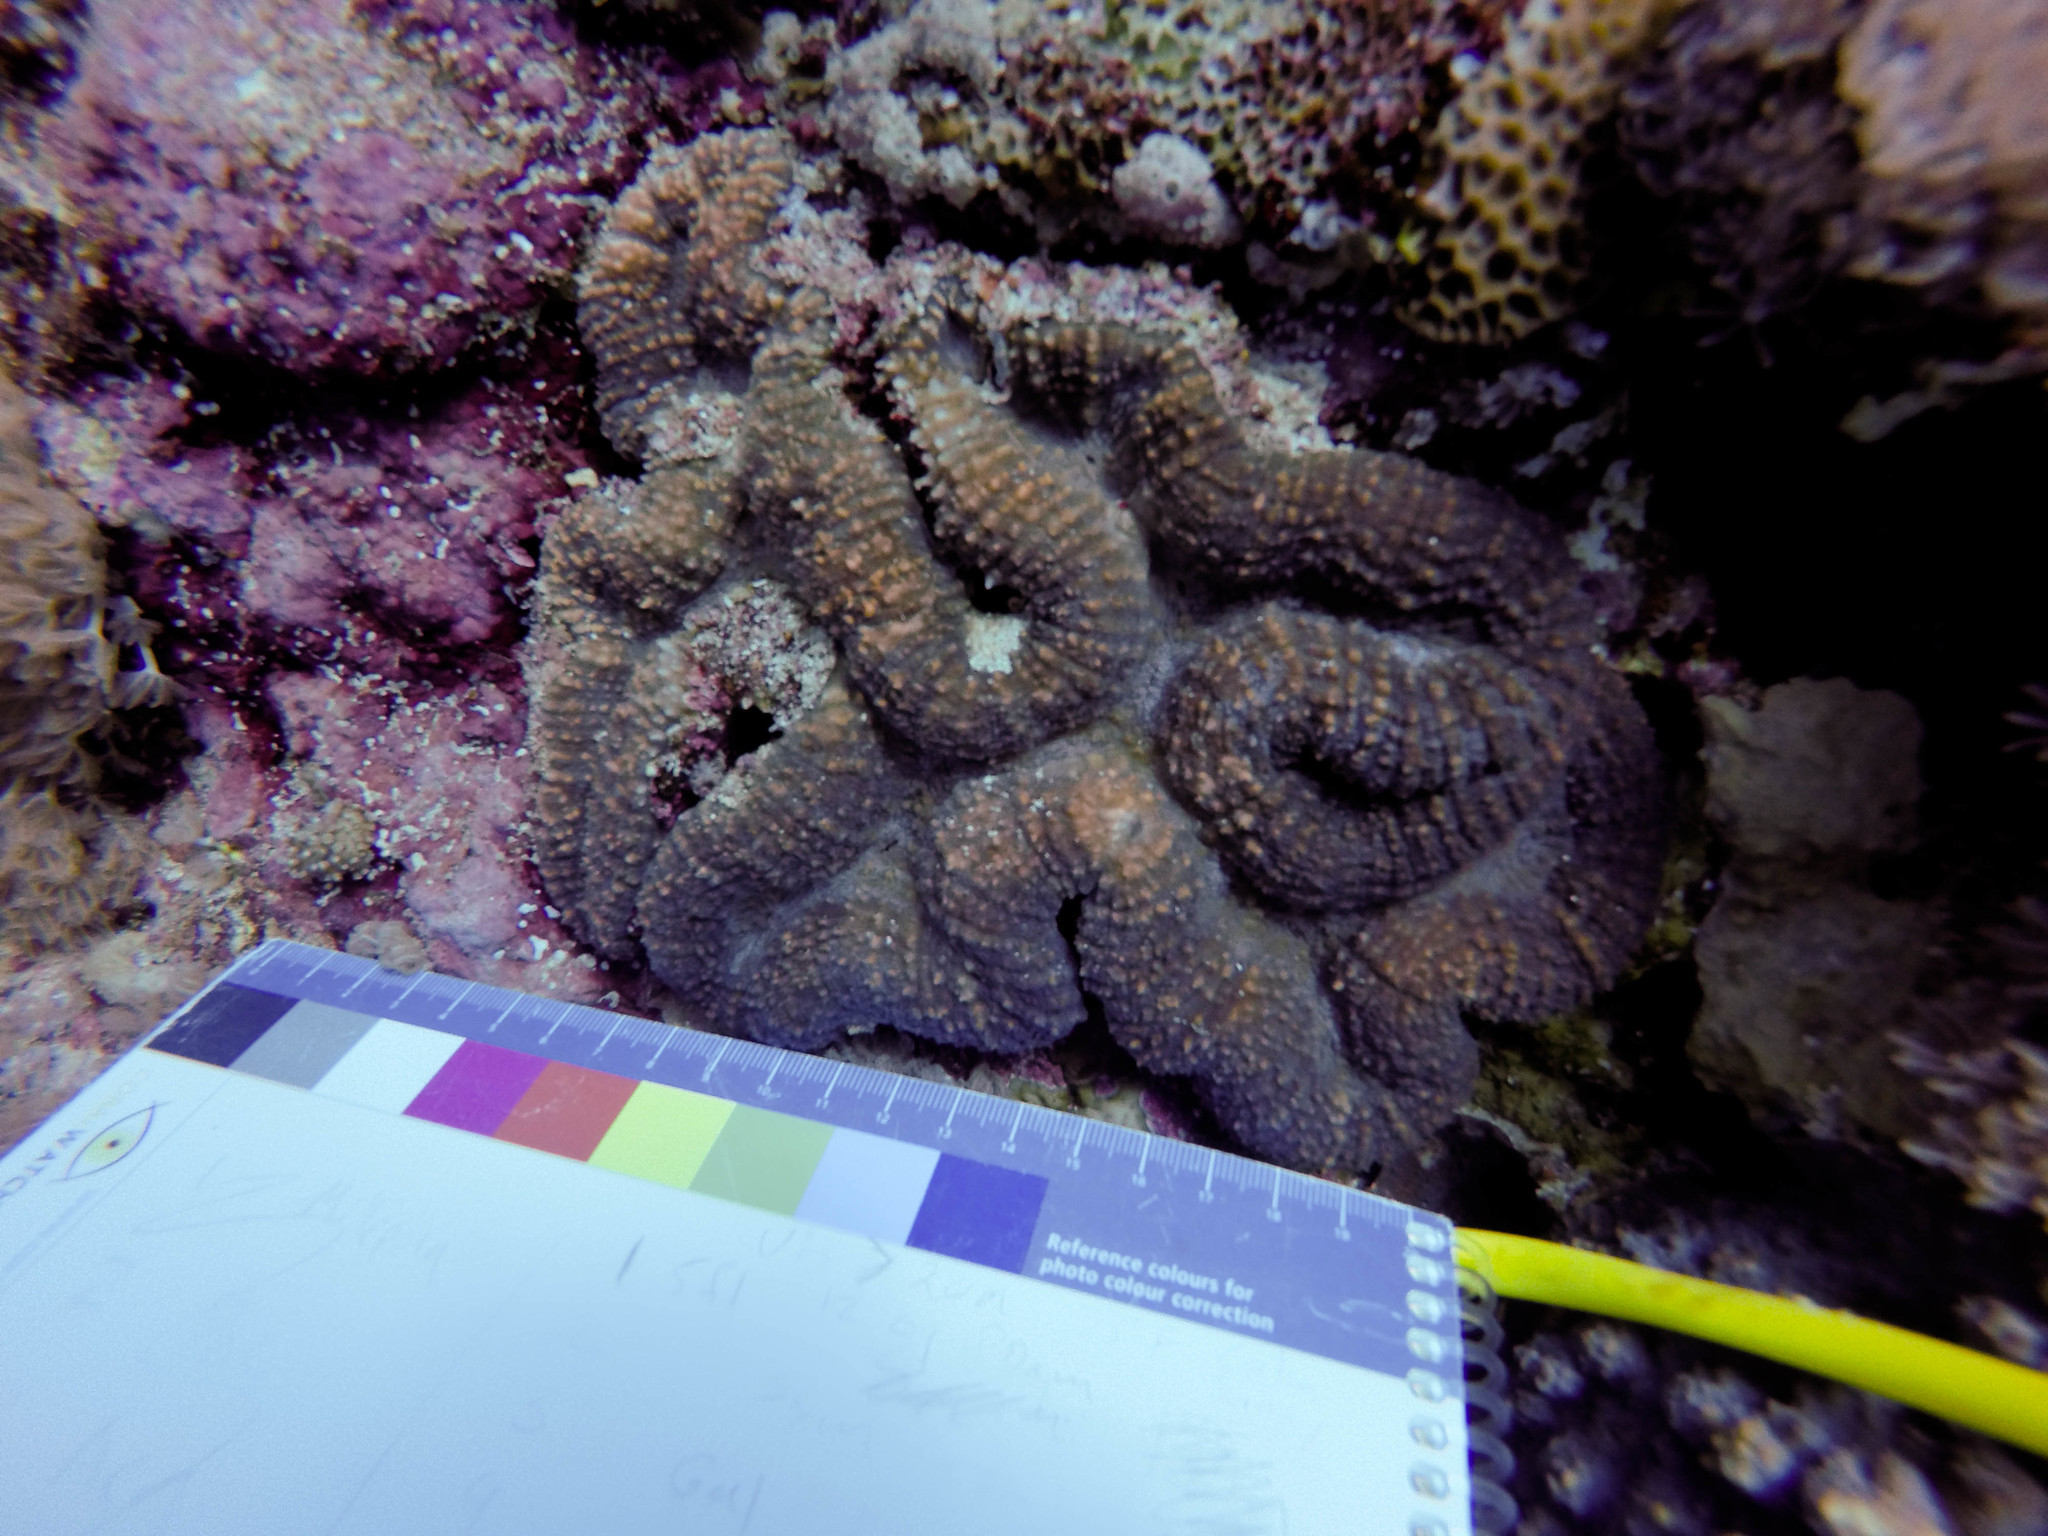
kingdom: Animalia
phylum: Cnidaria
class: Anthozoa
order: Scleractinia
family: Lobophylliidae
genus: Lobophyllia
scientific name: Lobophyllia
